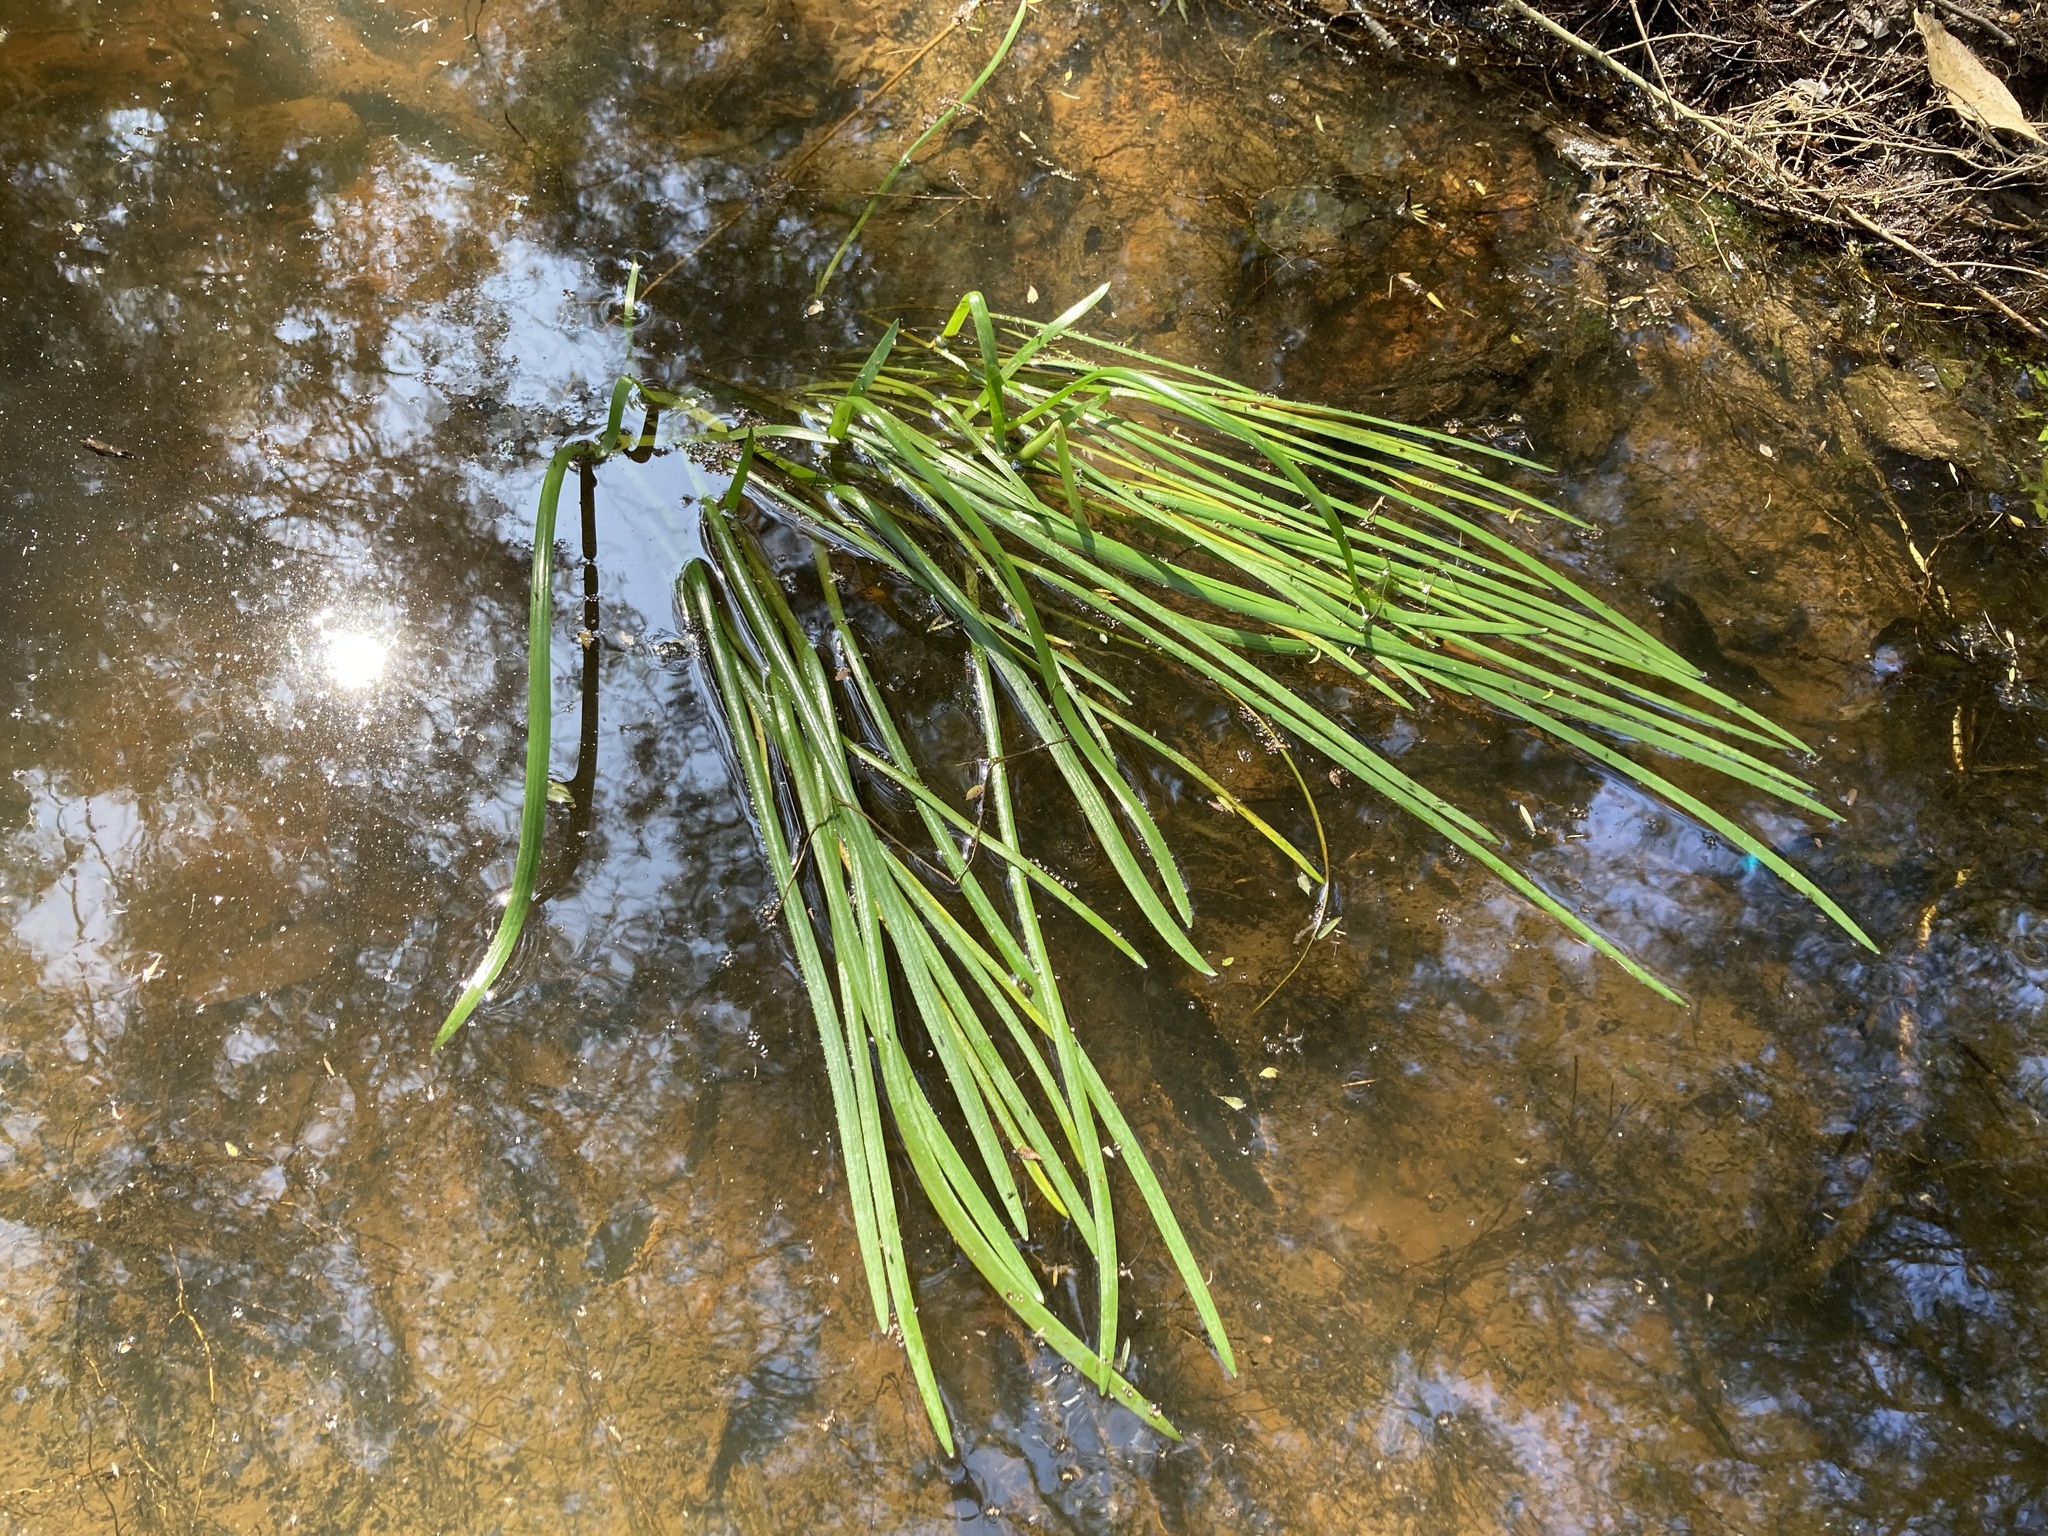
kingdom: Plantae
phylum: Tracheophyta
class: Liliopsida
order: Alismatales
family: Juncaginaceae
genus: Cycnogeton
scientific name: Cycnogeton procerum
